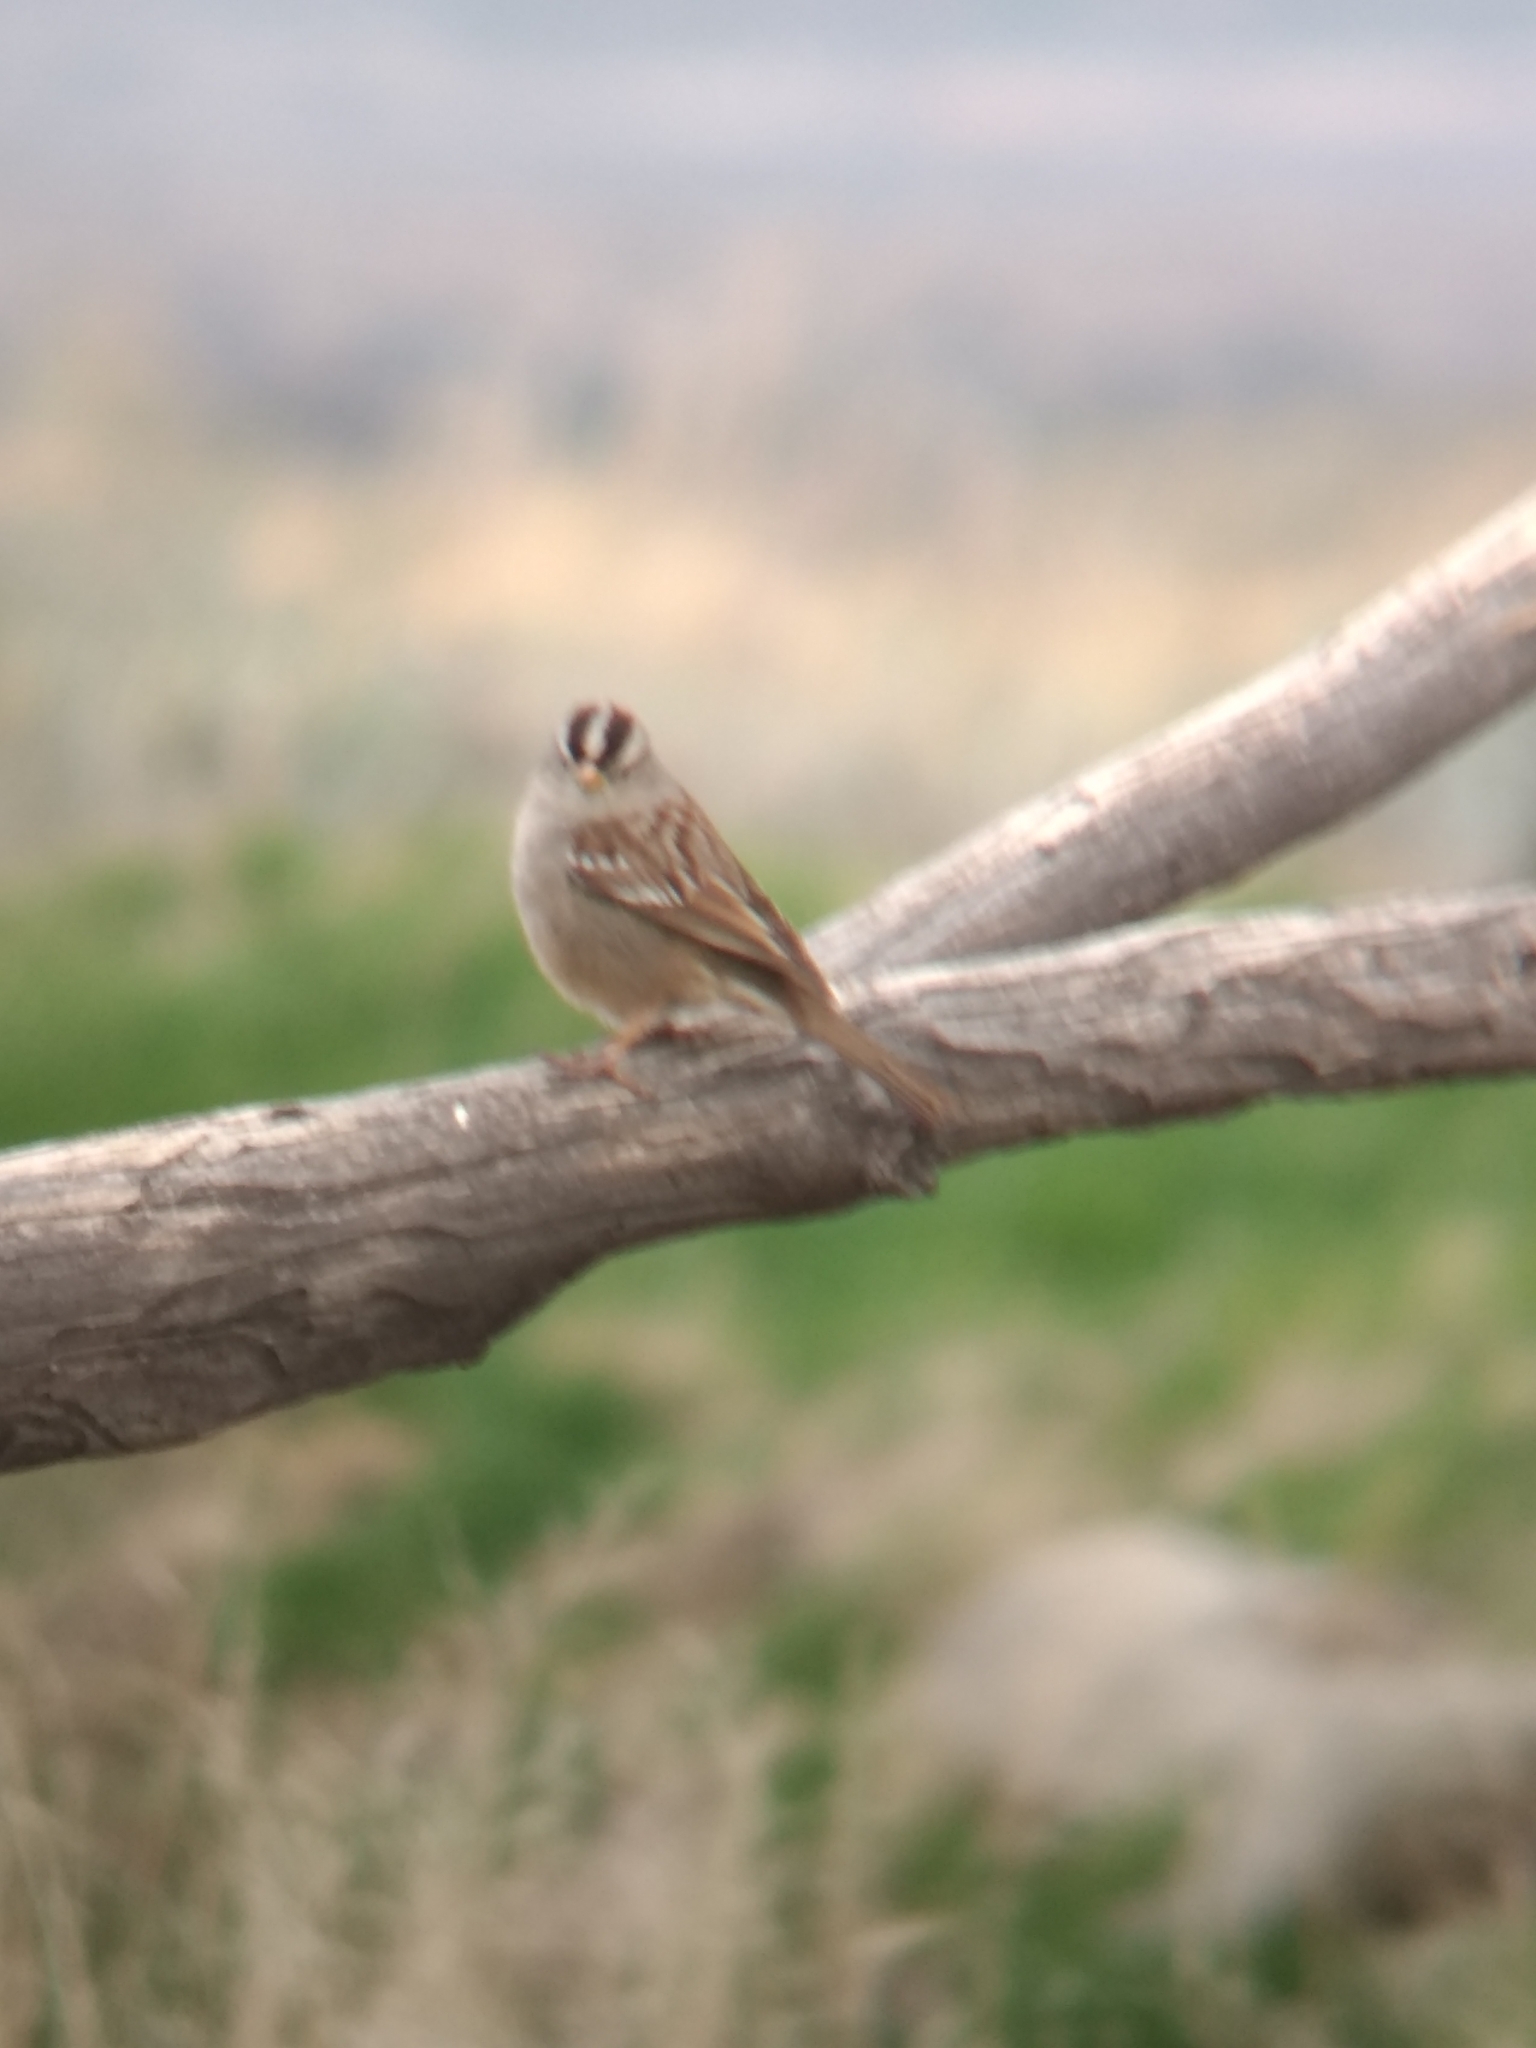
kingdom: Animalia
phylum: Chordata
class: Aves
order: Passeriformes
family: Passerellidae
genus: Zonotrichia
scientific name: Zonotrichia leucophrys
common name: White-crowned sparrow
